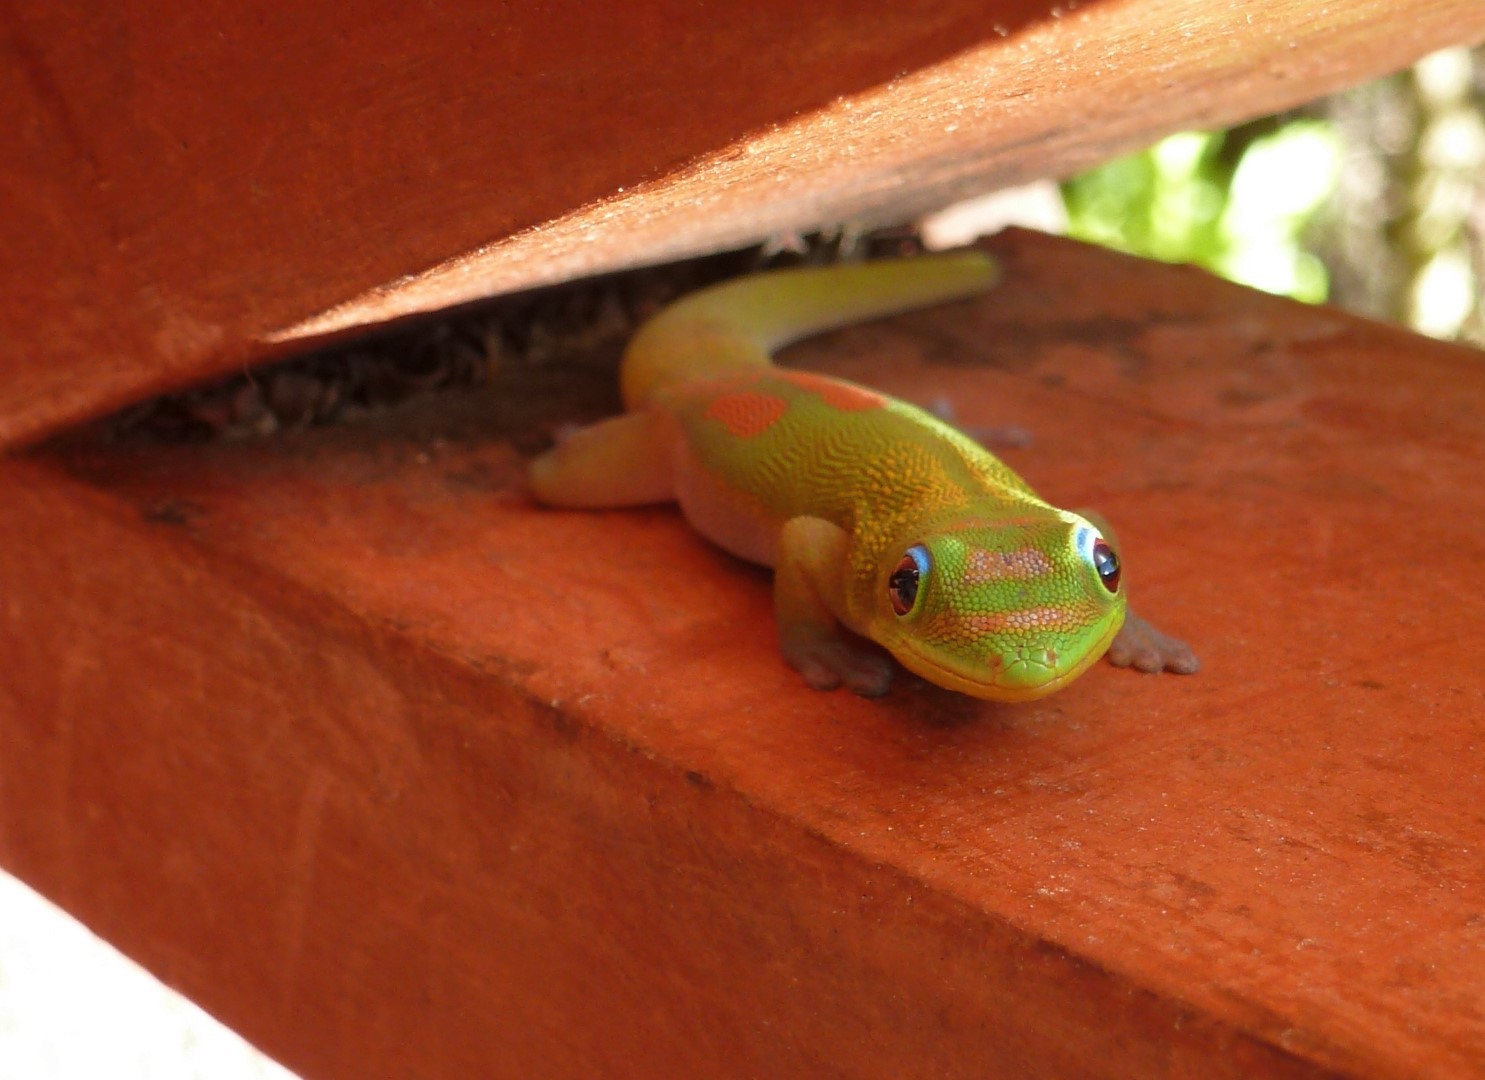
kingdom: Animalia
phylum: Chordata
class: Squamata
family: Gekkonidae
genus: Phelsuma
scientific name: Phelsuma laticauda
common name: Gold dust day gecko
